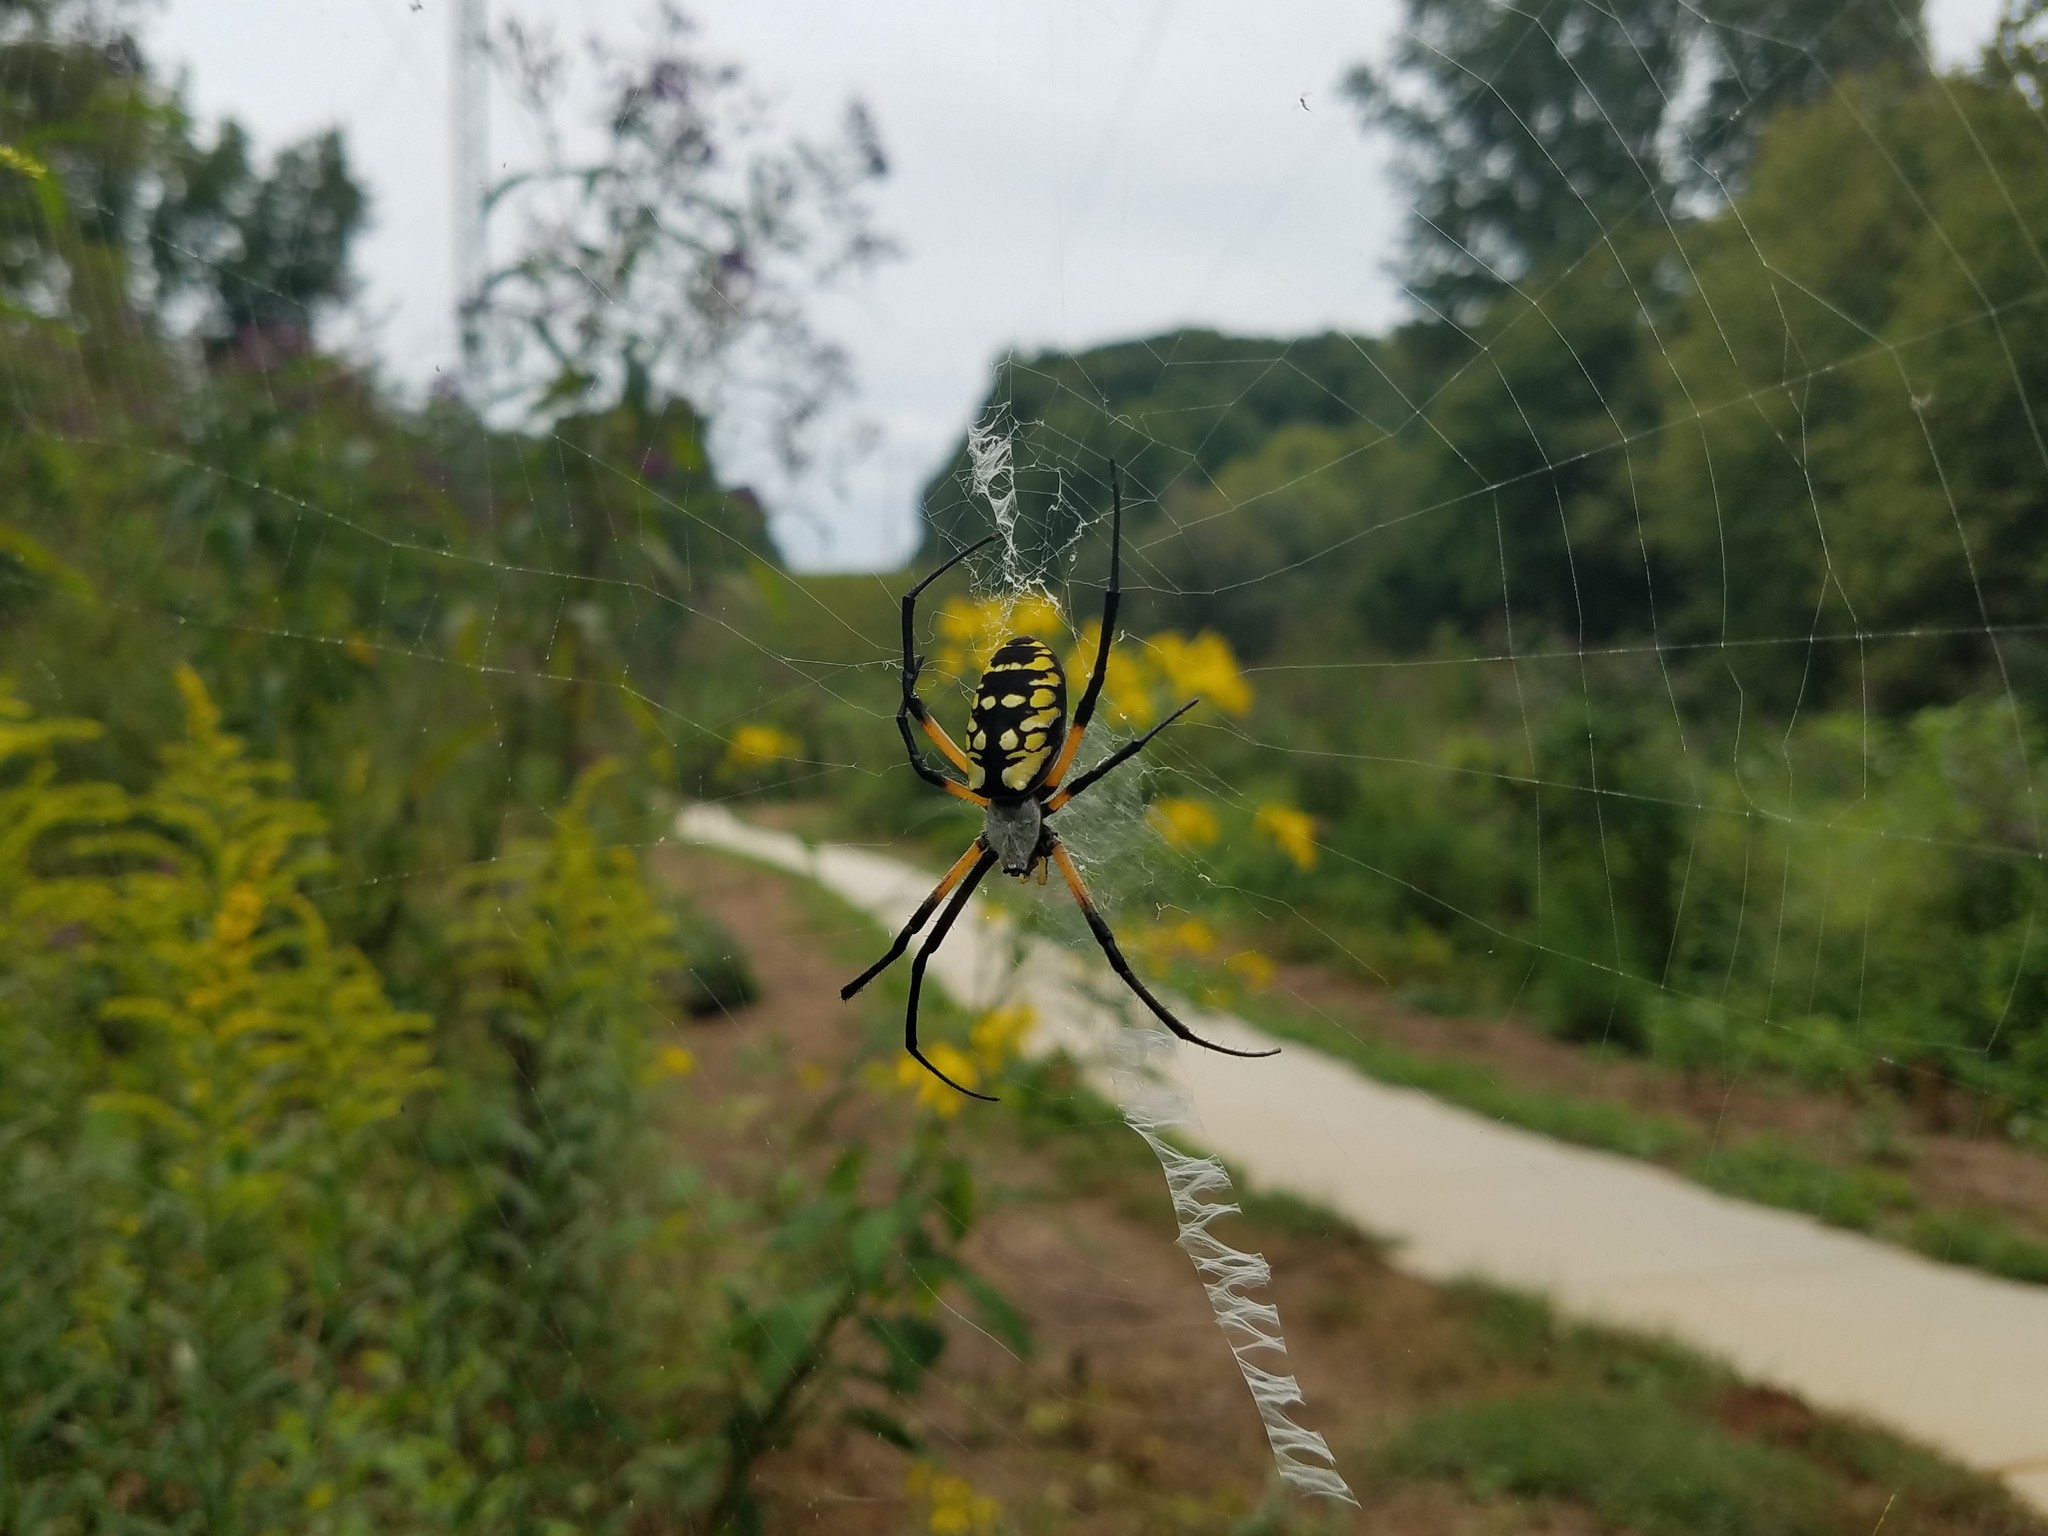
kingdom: Animalia
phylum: Arthropoda
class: Arachnida
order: Araneae
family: Araneidae
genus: Argiope
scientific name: Argiope aurantia
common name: Orb weavers
